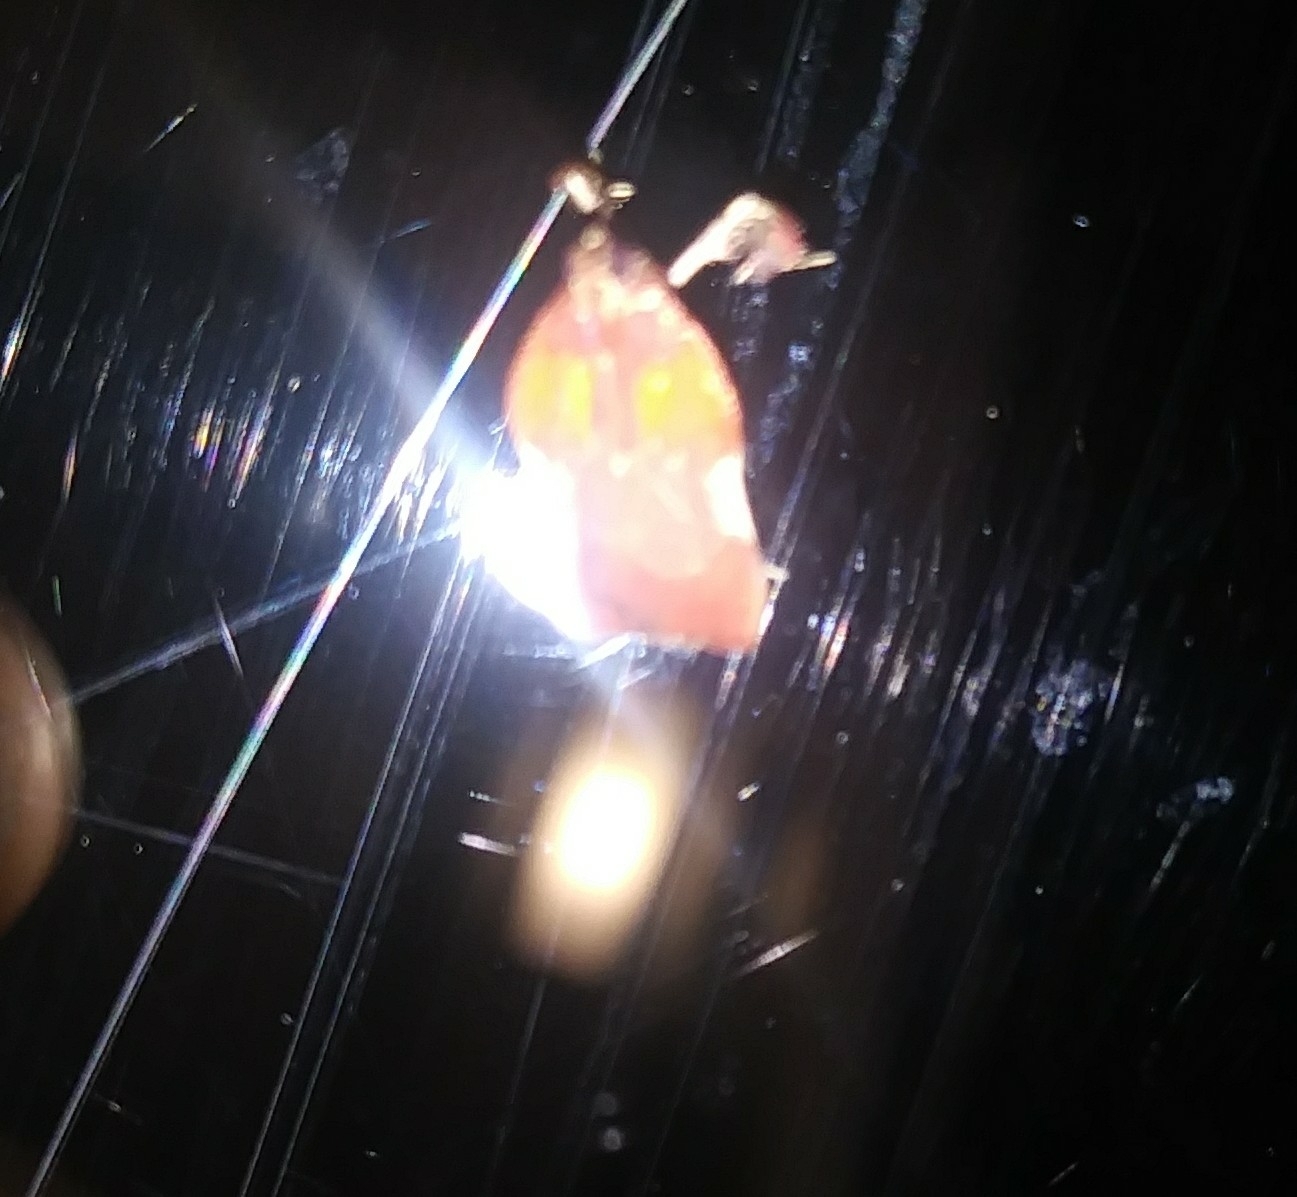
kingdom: Animalia
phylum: Arthropoda
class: Insecta
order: Lepidoptera
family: Pyralidae
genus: Galasa
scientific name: Galasa nigrinodis
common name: Boxwood leaftier moth
